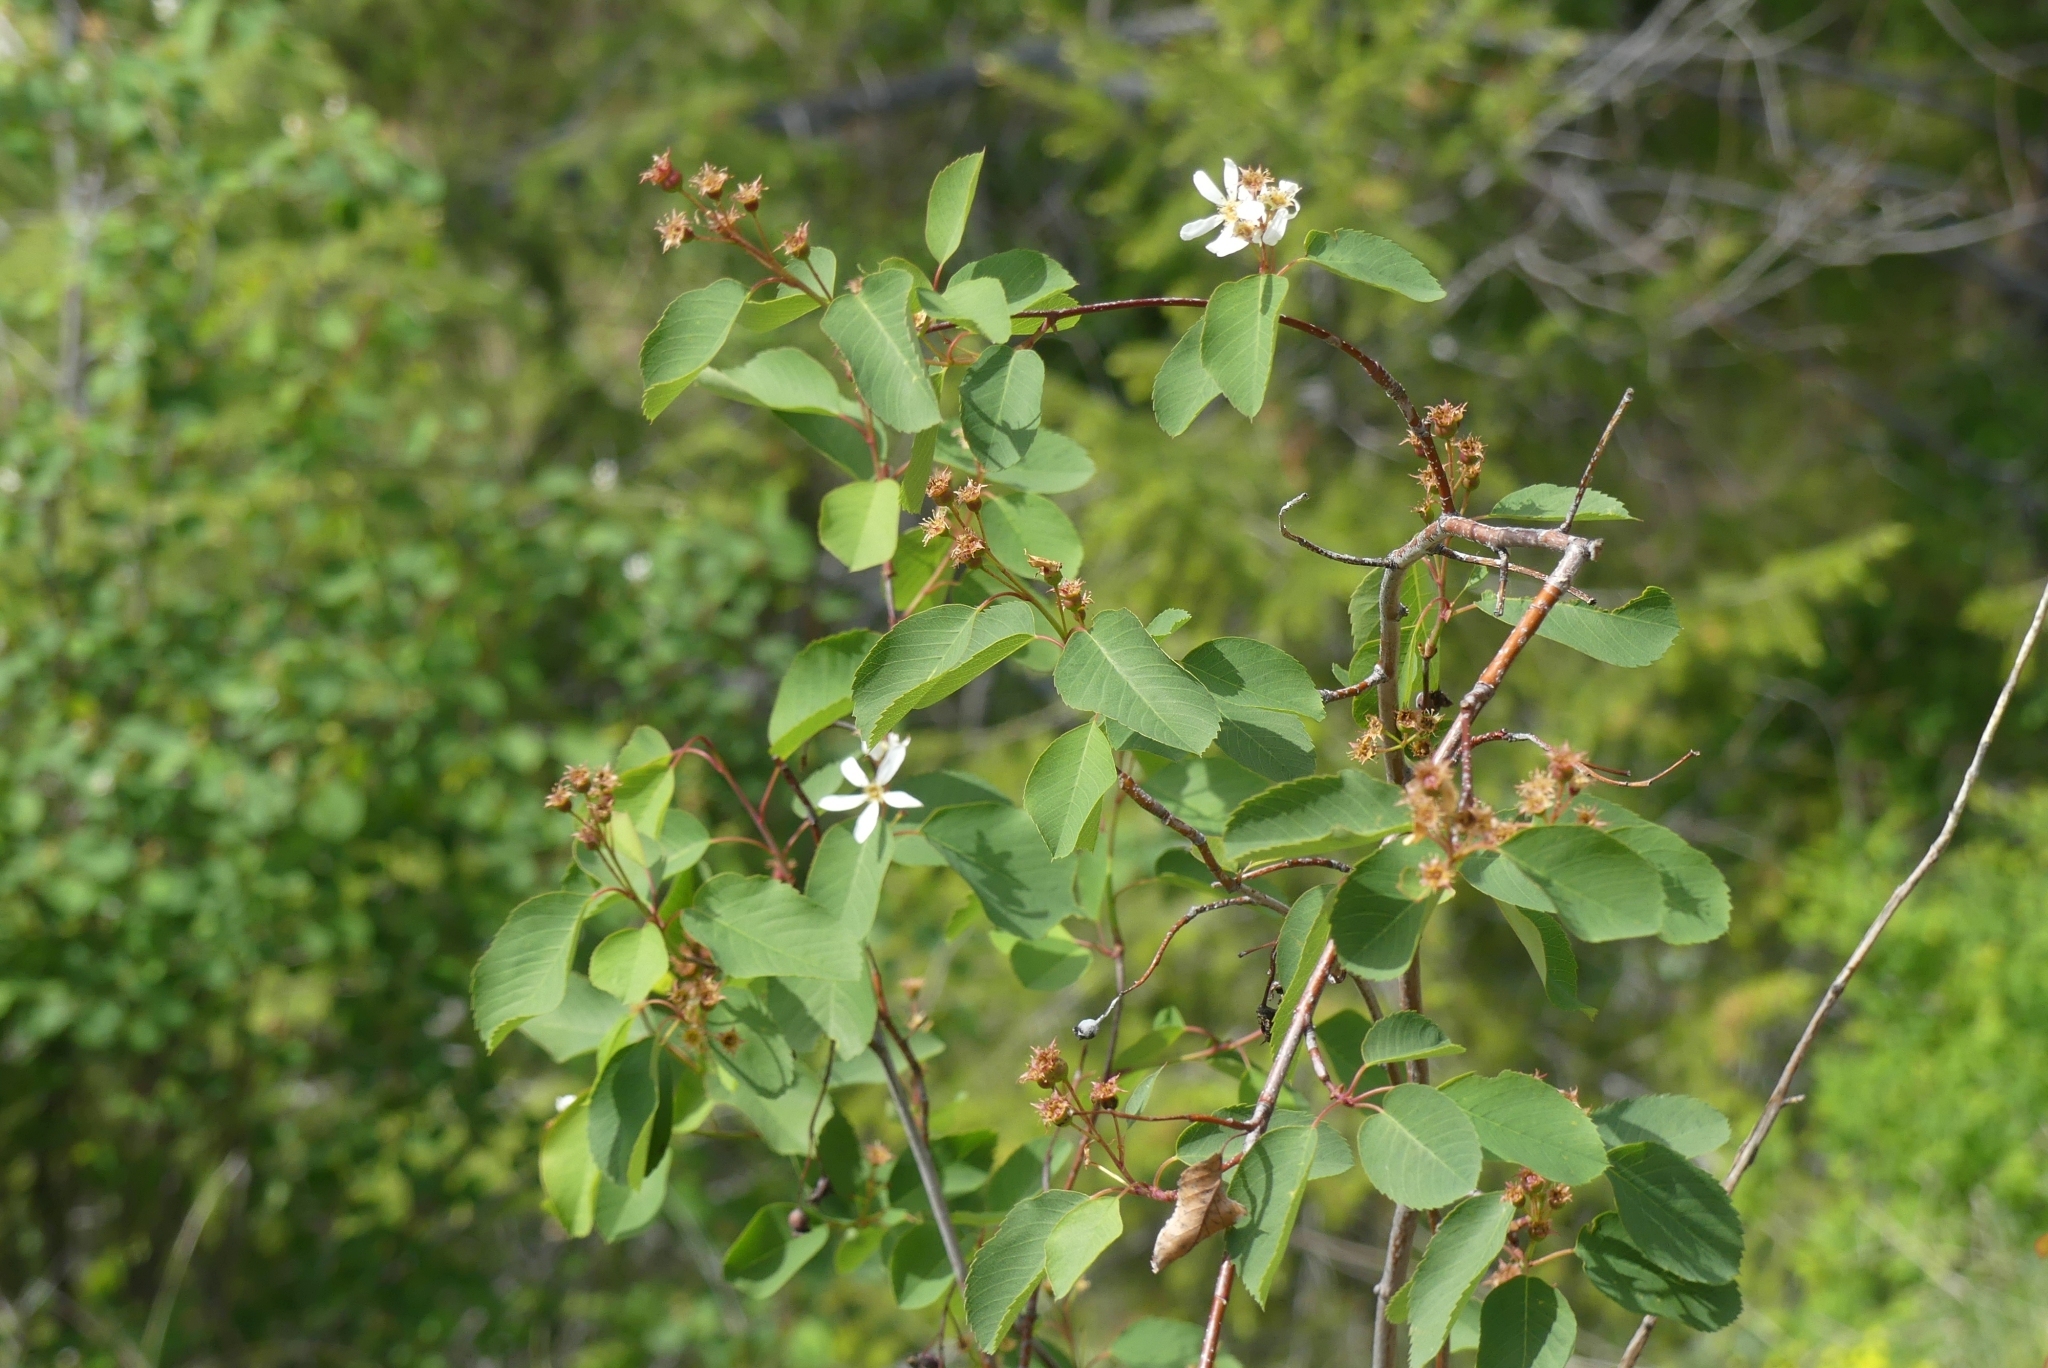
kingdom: Plantae
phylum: Tracheophyta
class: Magnoliopsida
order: Rosales
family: Rosaceae
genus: Amelanchier
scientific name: Amelanchier alnifolia
